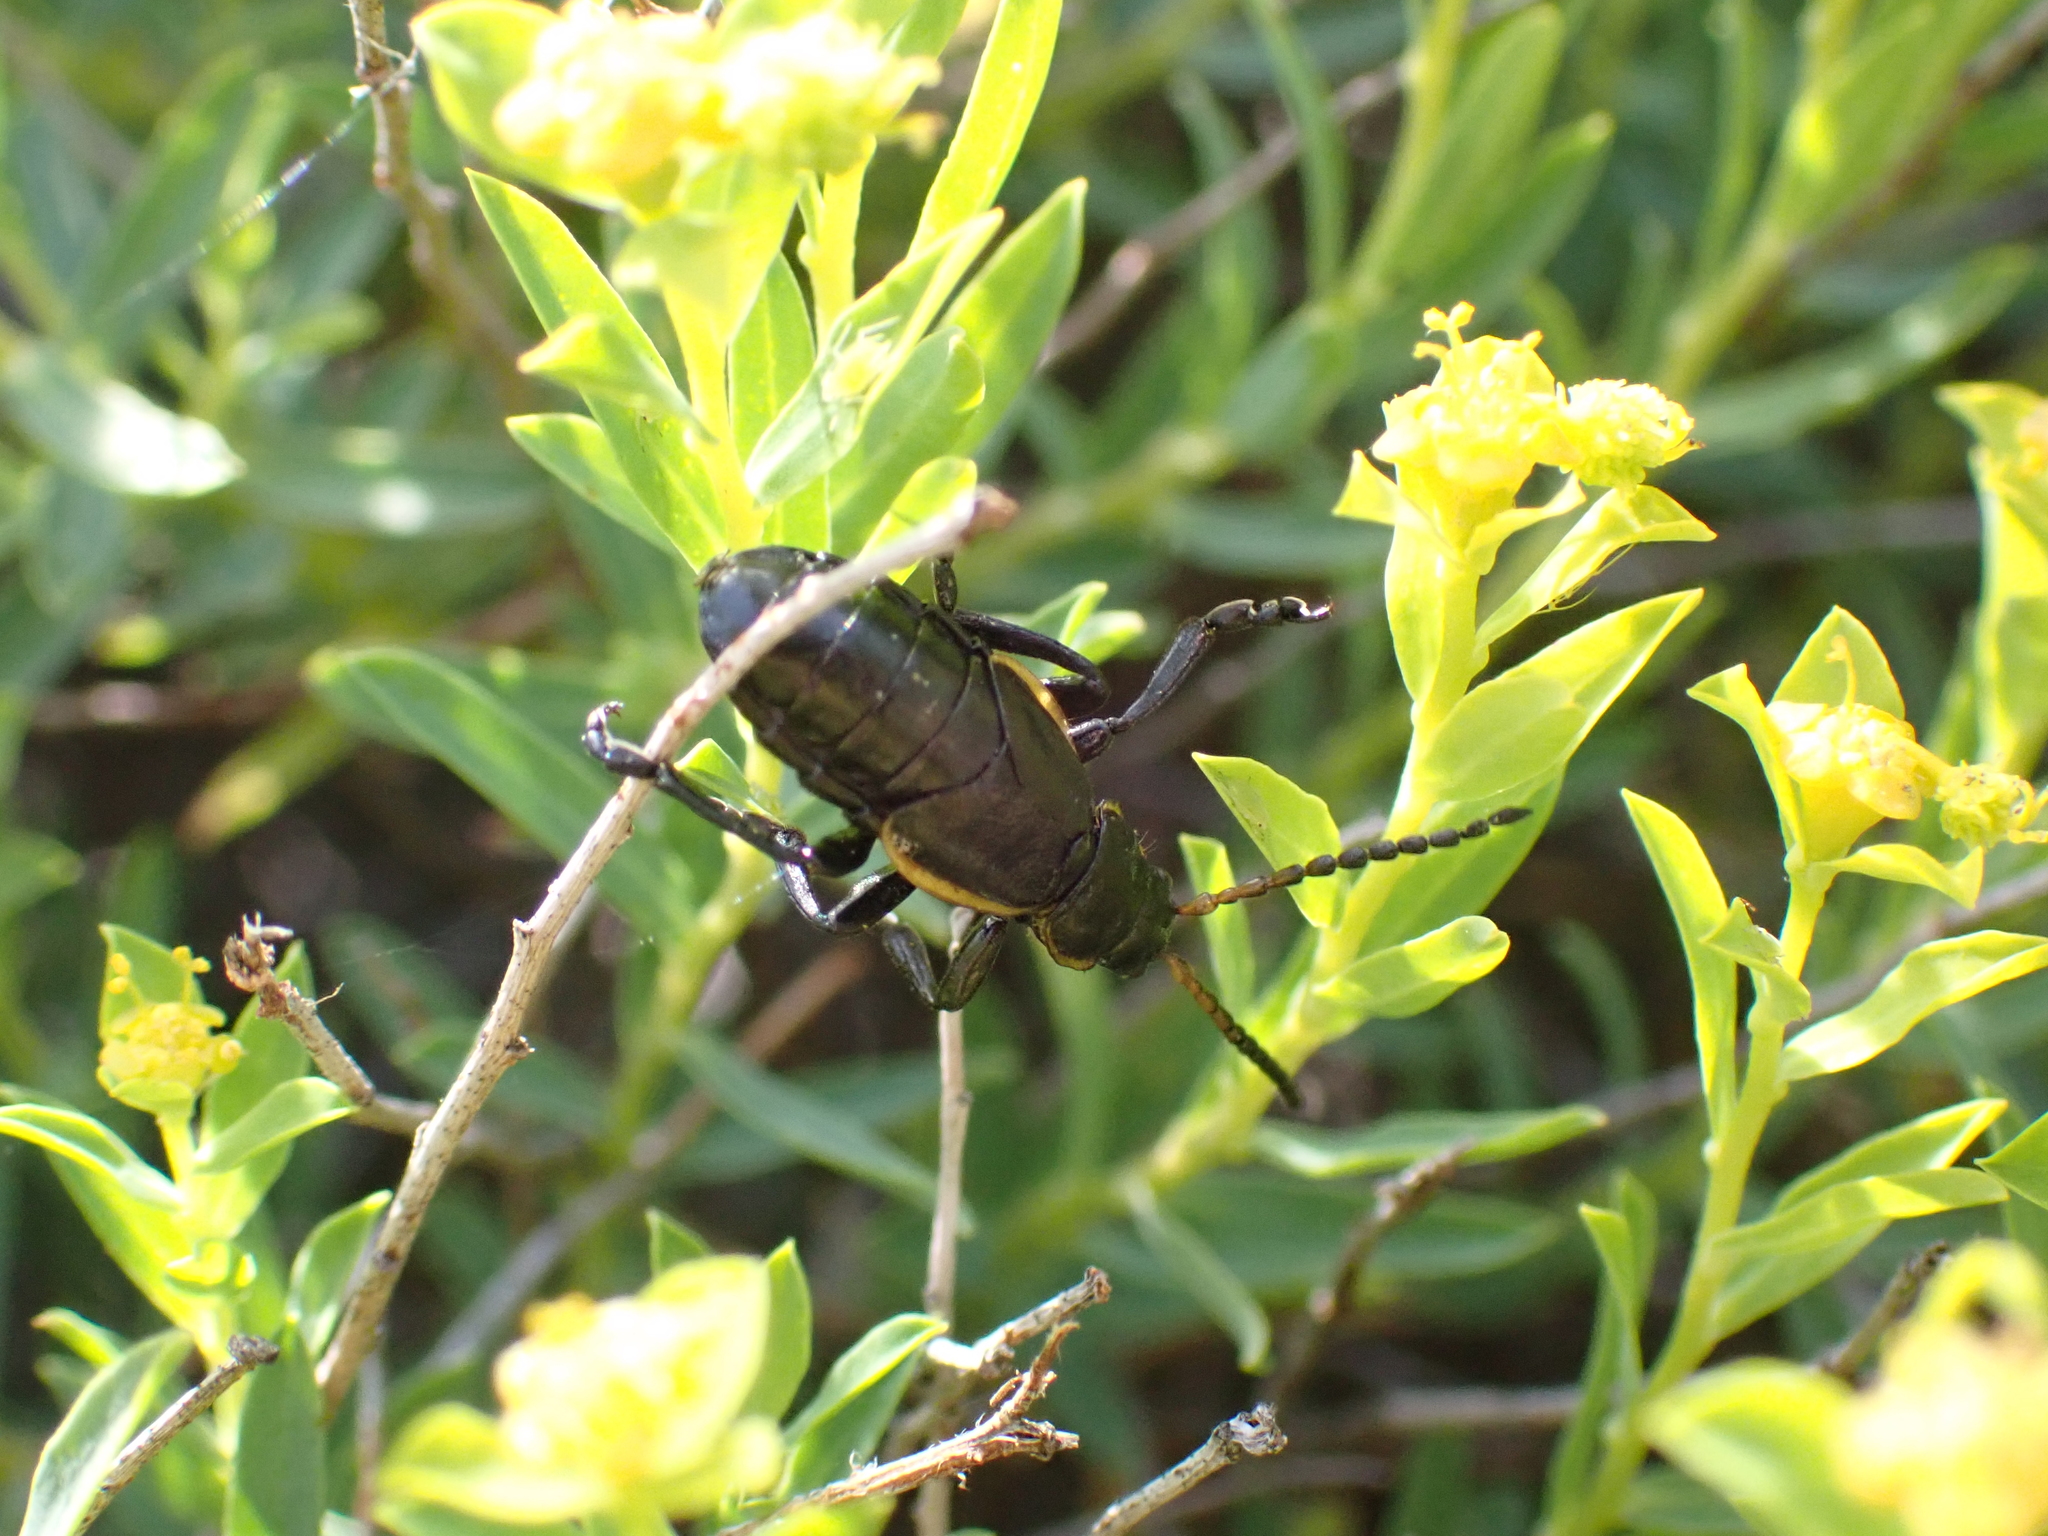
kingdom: Animalia
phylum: Arthropoda
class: Insecta
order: Coleoptera
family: Chrysomelidae
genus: Arima
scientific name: Arima marginata
